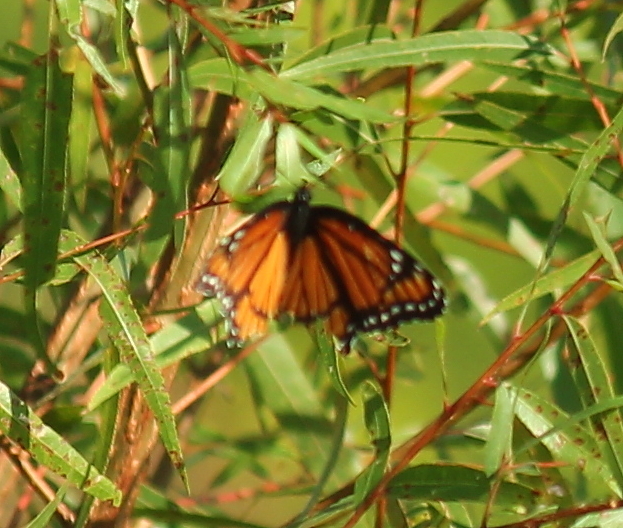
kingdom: Animalia
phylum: Arthropoda
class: Insecta
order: Lepidoptera
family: Nymphalidae
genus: Limenitis
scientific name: Limenitis archippus
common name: Viceroy
